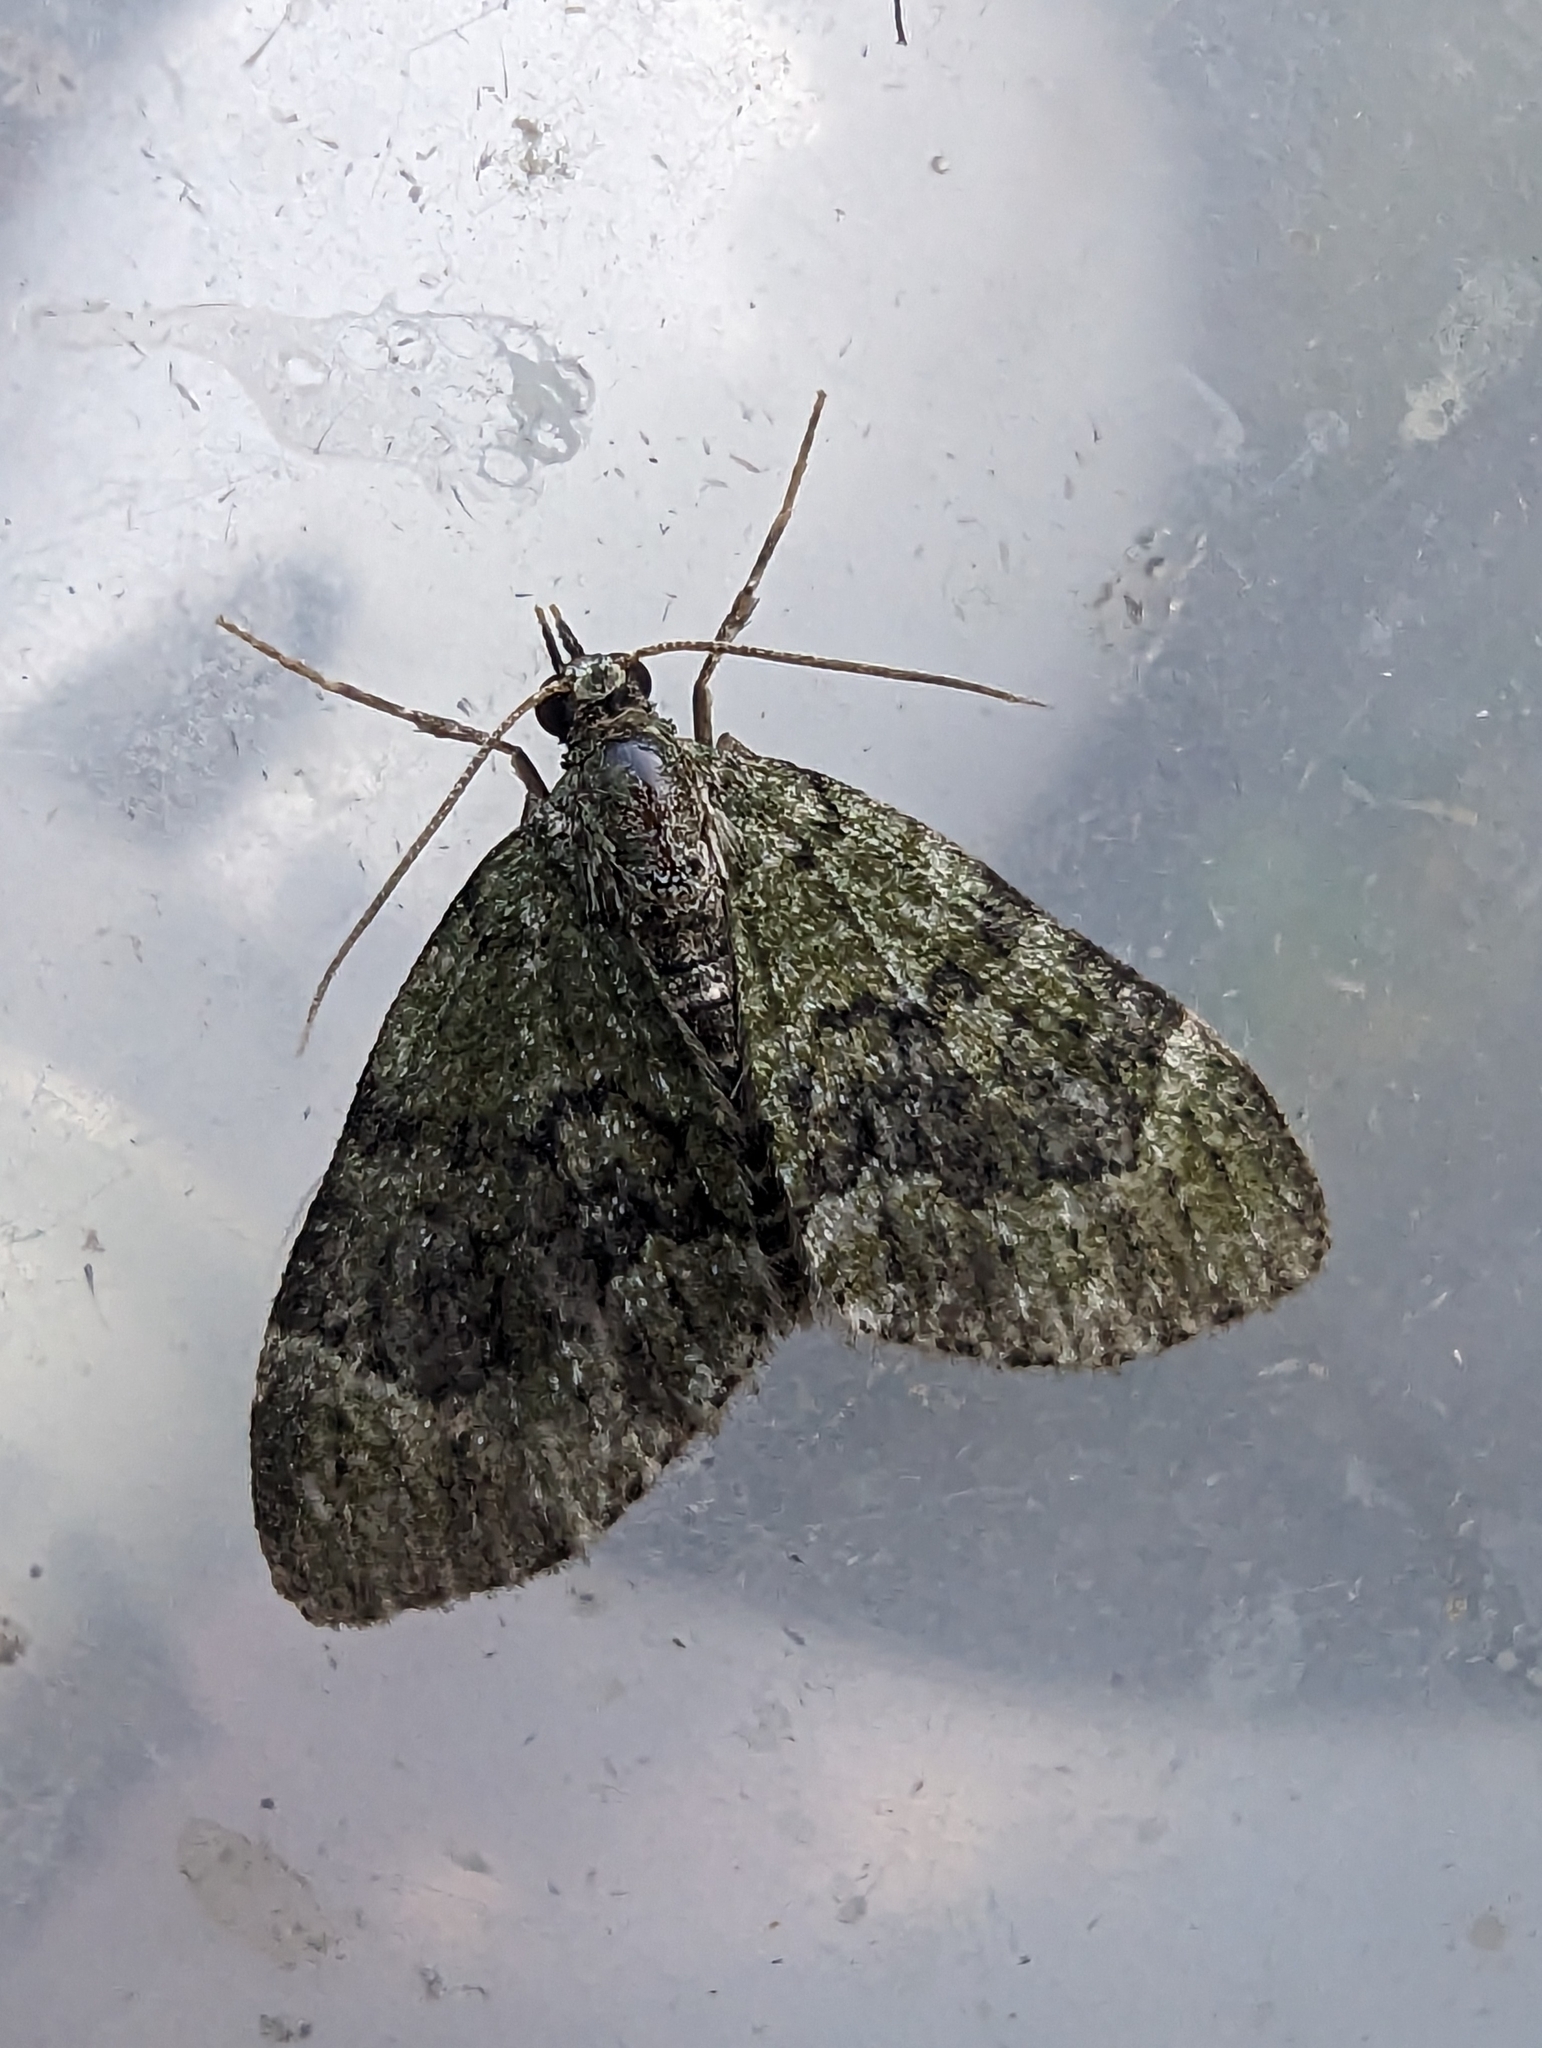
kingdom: Animalia
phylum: Arthropoda
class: Insecta
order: Lepidoptera
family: Geometridae
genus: Acasis
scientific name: Acasis viretata
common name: Yellow-barred brindle
